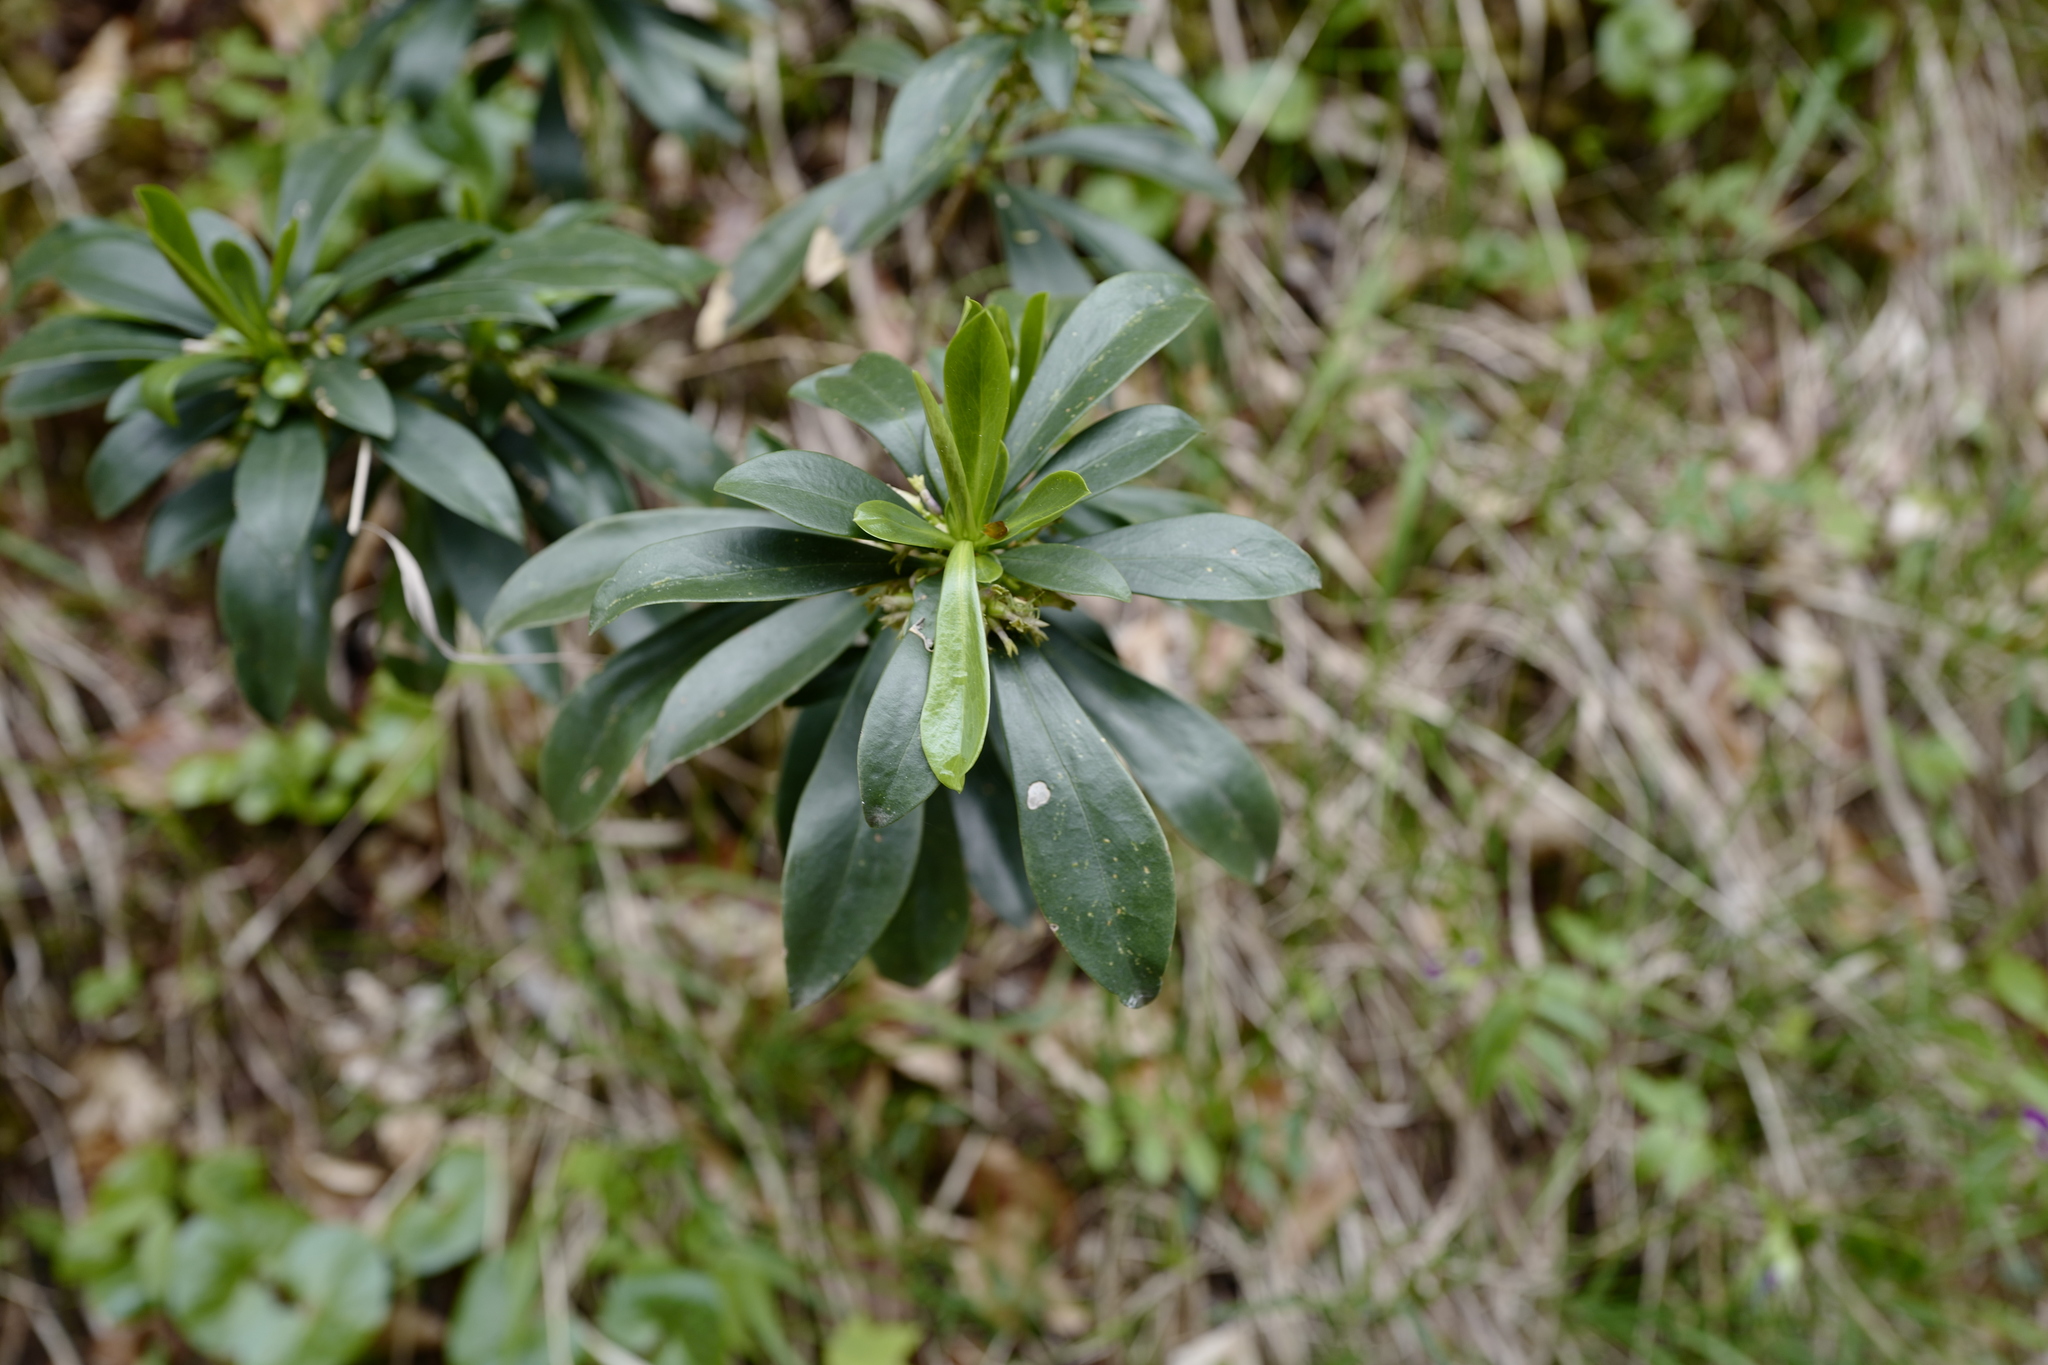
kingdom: Plantae
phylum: Tracheophyta
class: Magnoliopsida
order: Malvales
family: Thymelaeaceae
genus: Daphne
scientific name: Daphne laureola
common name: Spurge-laurel
